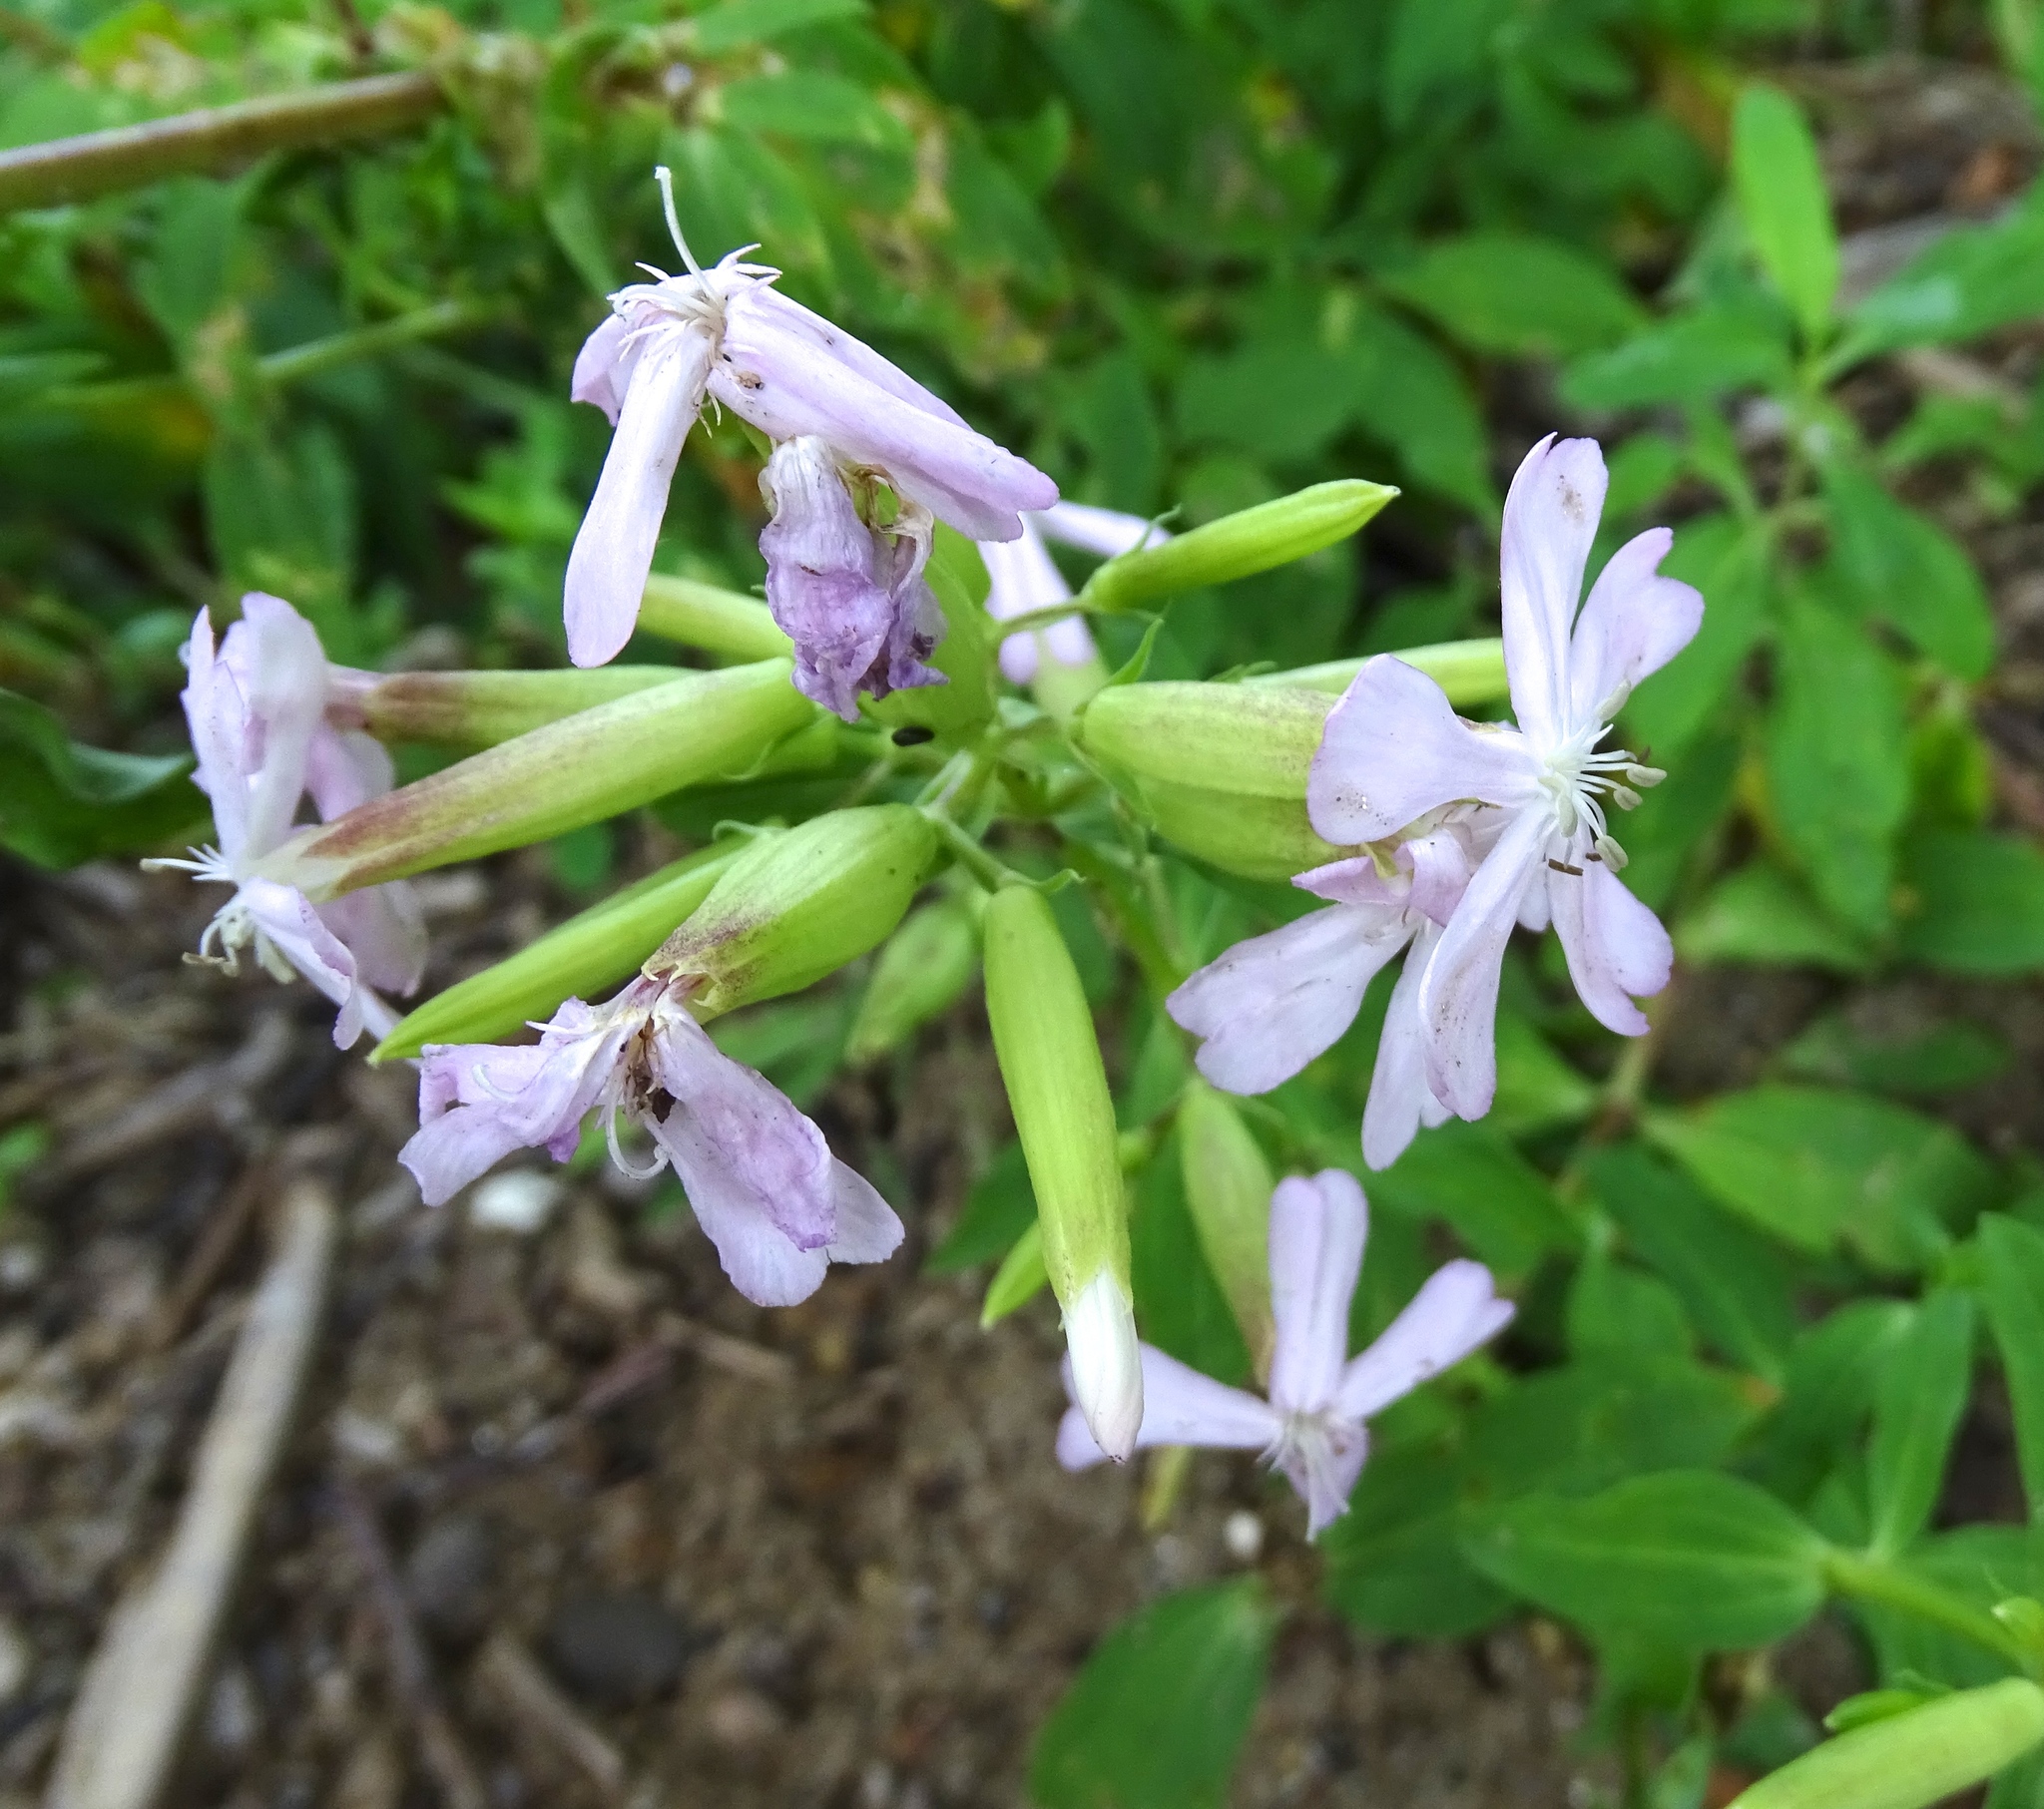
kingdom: Plantae
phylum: Tracheophyta
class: Magnoliopsida
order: Caryophyllales
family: Caryophyllaceae
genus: Saponaria
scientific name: Saponaria officinalis
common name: Soapwort
